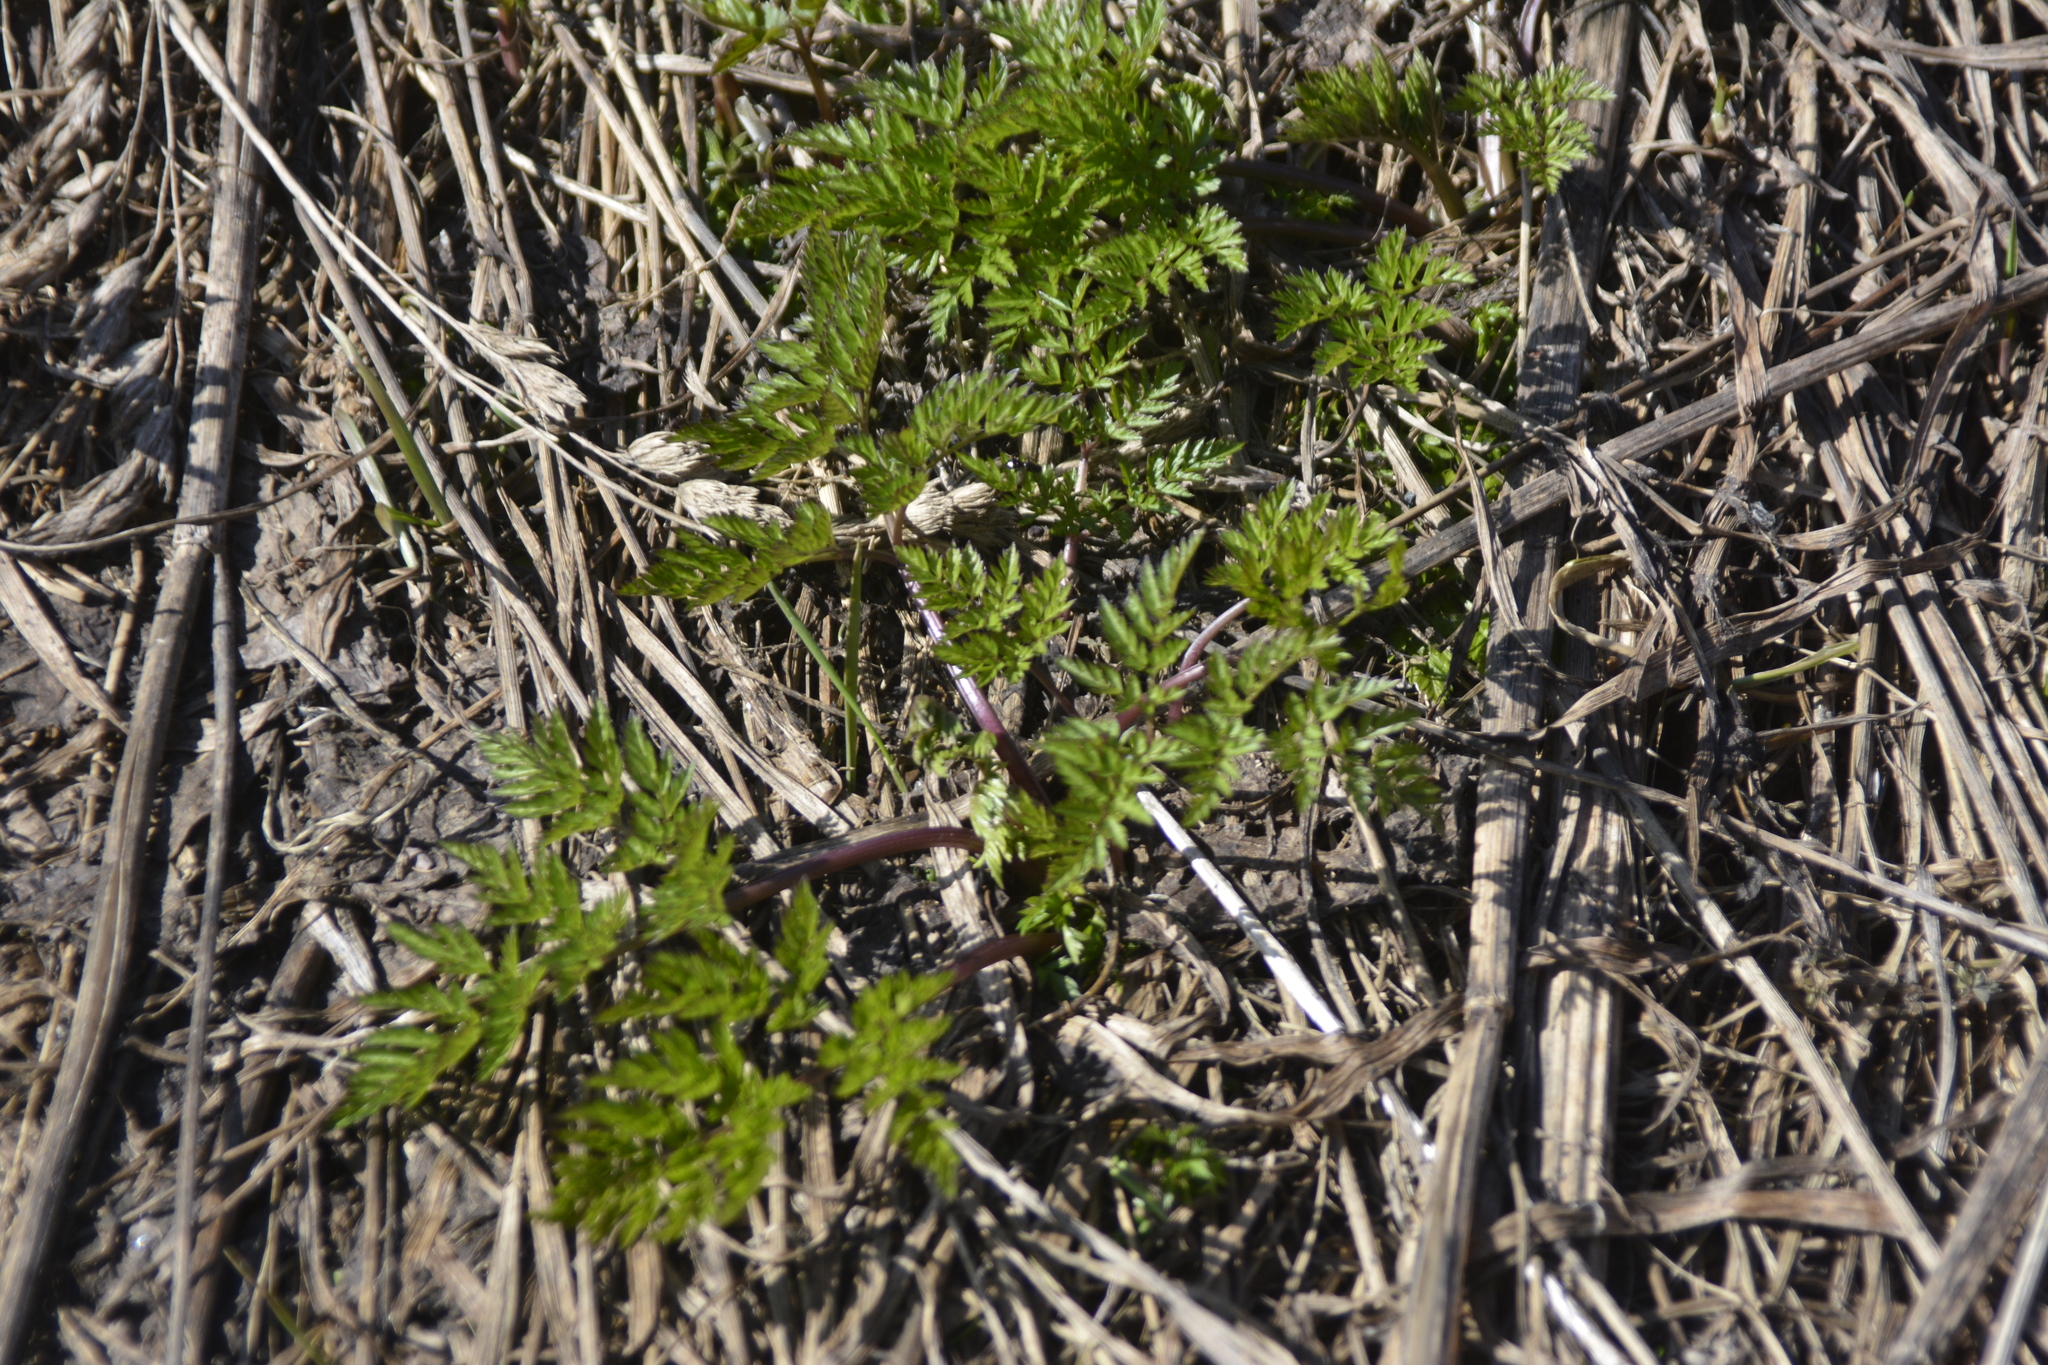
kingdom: Plantae
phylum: Tracheophyta
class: Magnoliopsida
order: Apiales
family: Apiaceae
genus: Anthriscus
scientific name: Anthriscus sylvestris
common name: Cow parsley
